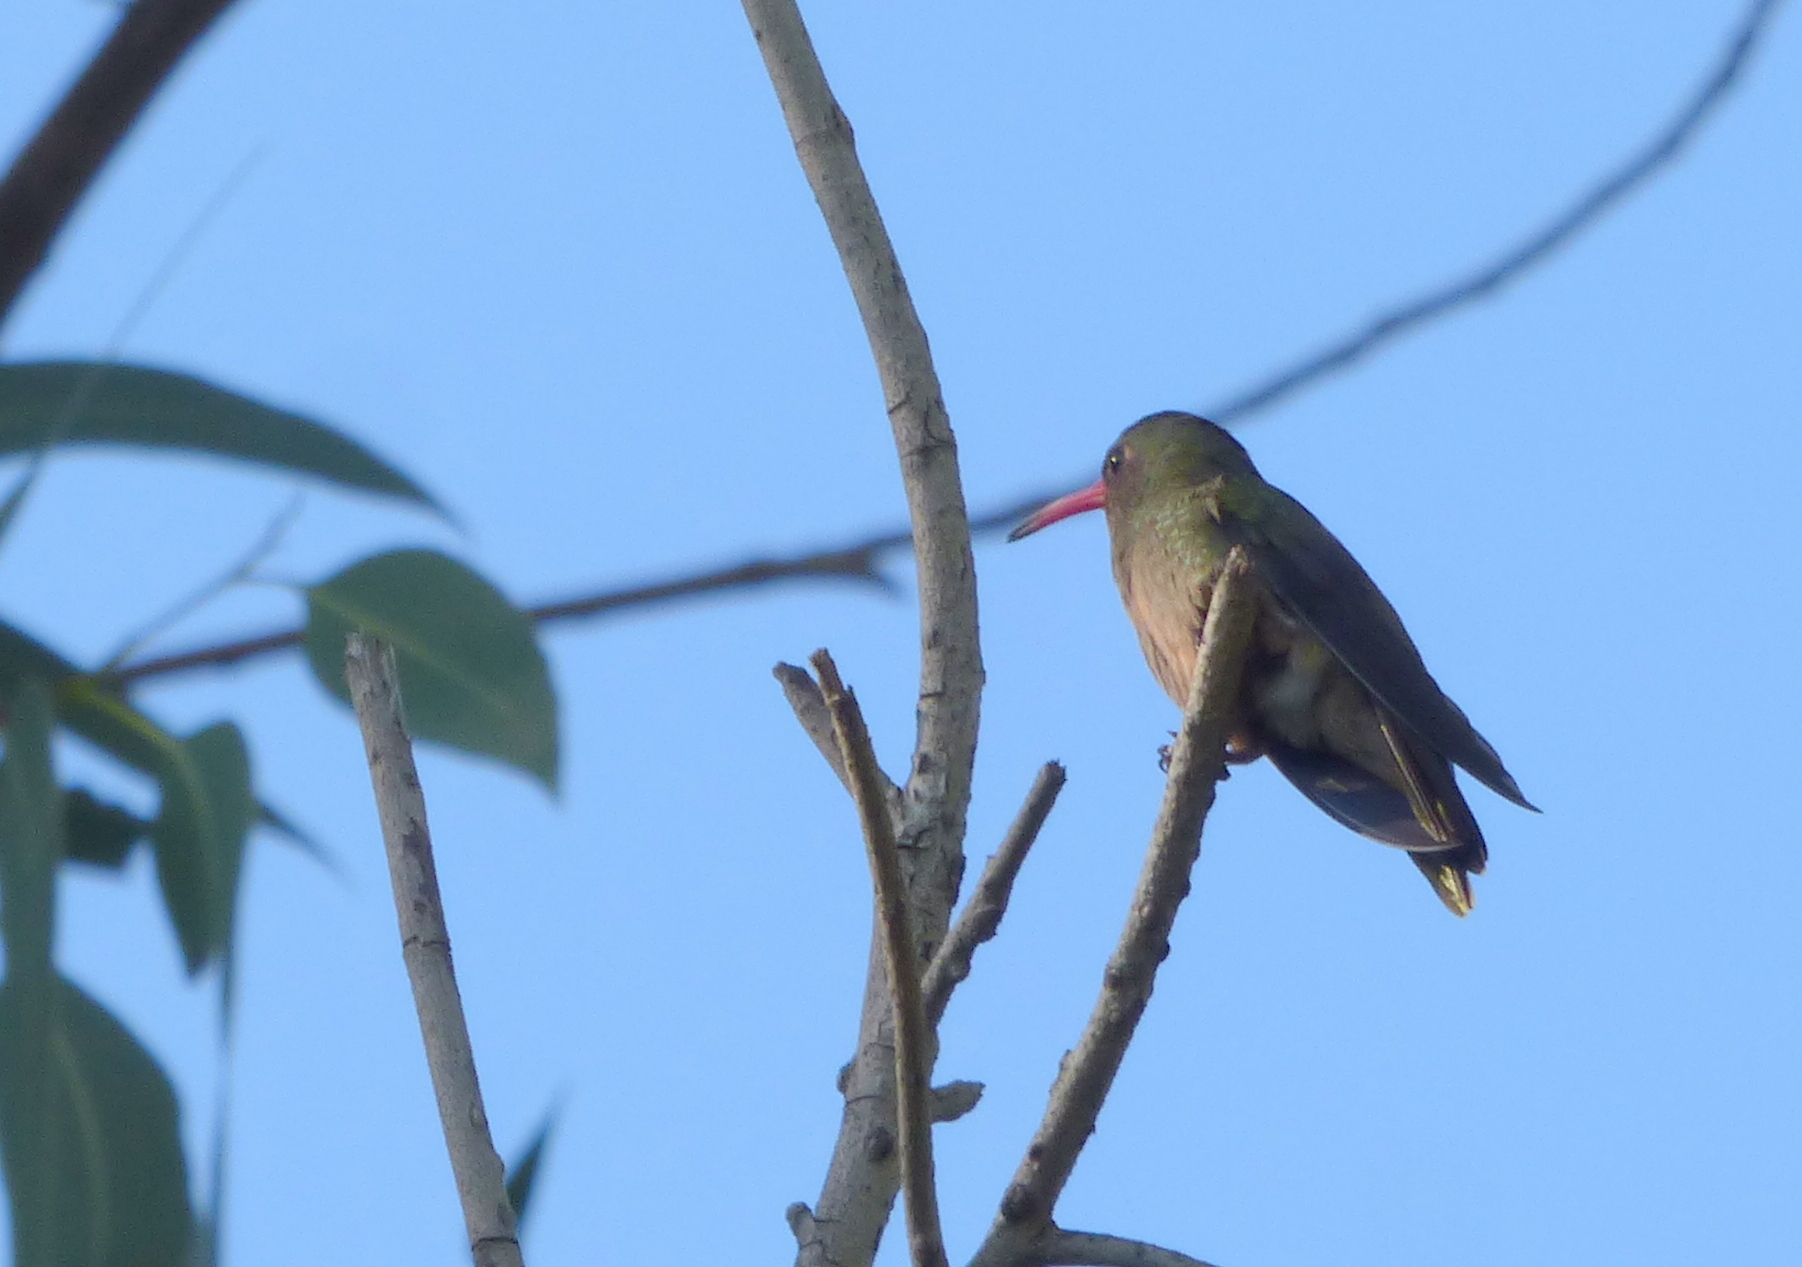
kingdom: Animalia
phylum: Chordata
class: Aves
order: Apodiformes
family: Trochilidae
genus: Hylocharis
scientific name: Hylocharis chrysura
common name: Gilded sapphire
